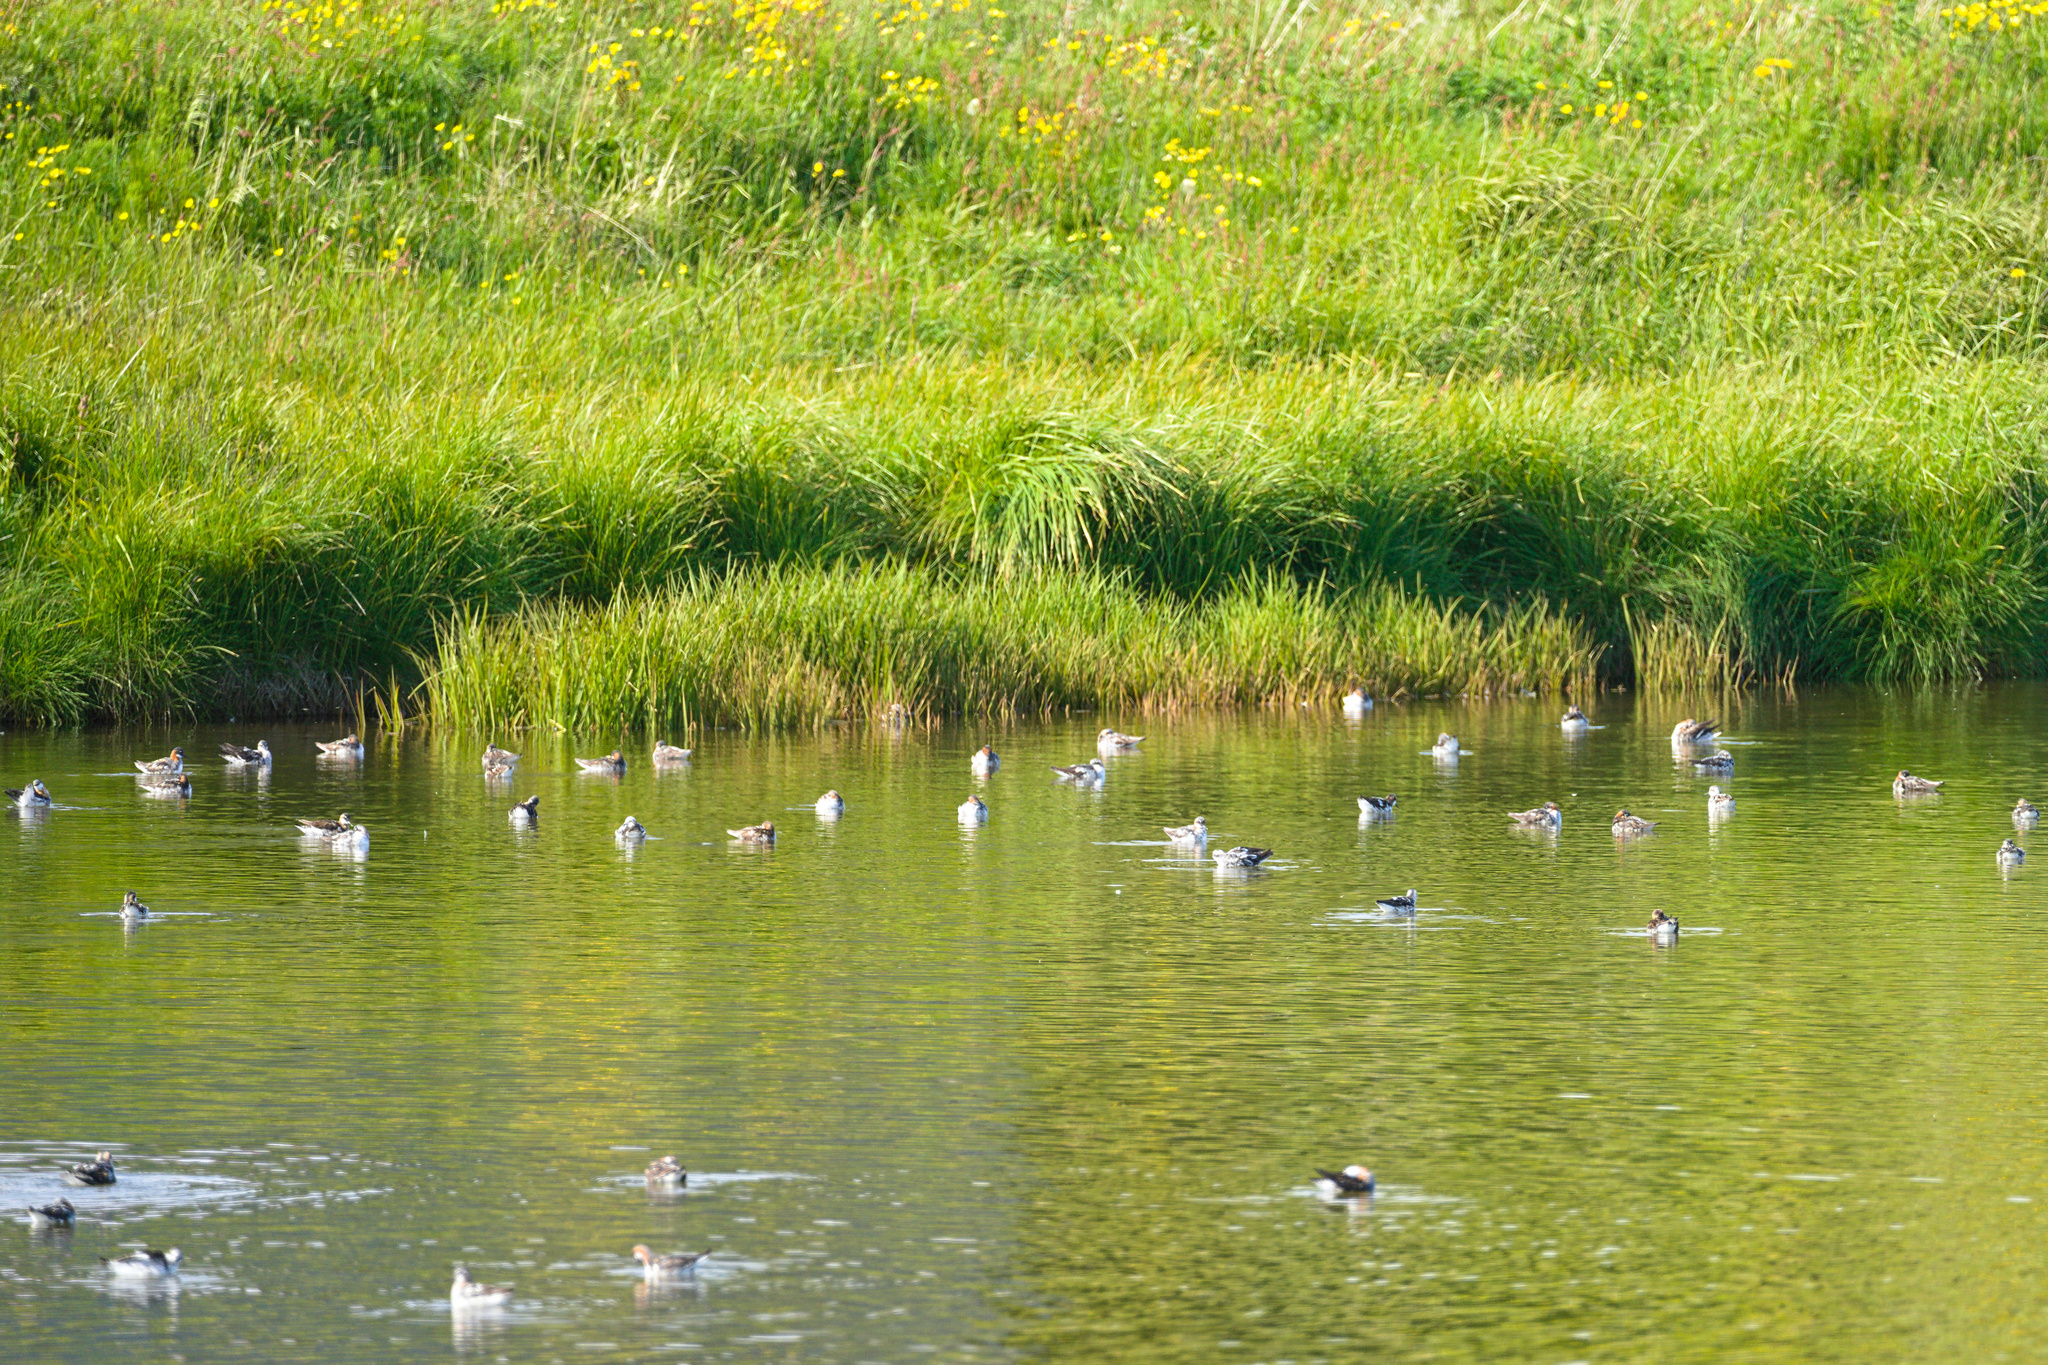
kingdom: Animalia
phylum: Chordata
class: Aves
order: Charadriiformes
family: Scolopacidae
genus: Phalaropus
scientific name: Phalaropus lobatus
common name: Red-necked phalarope
